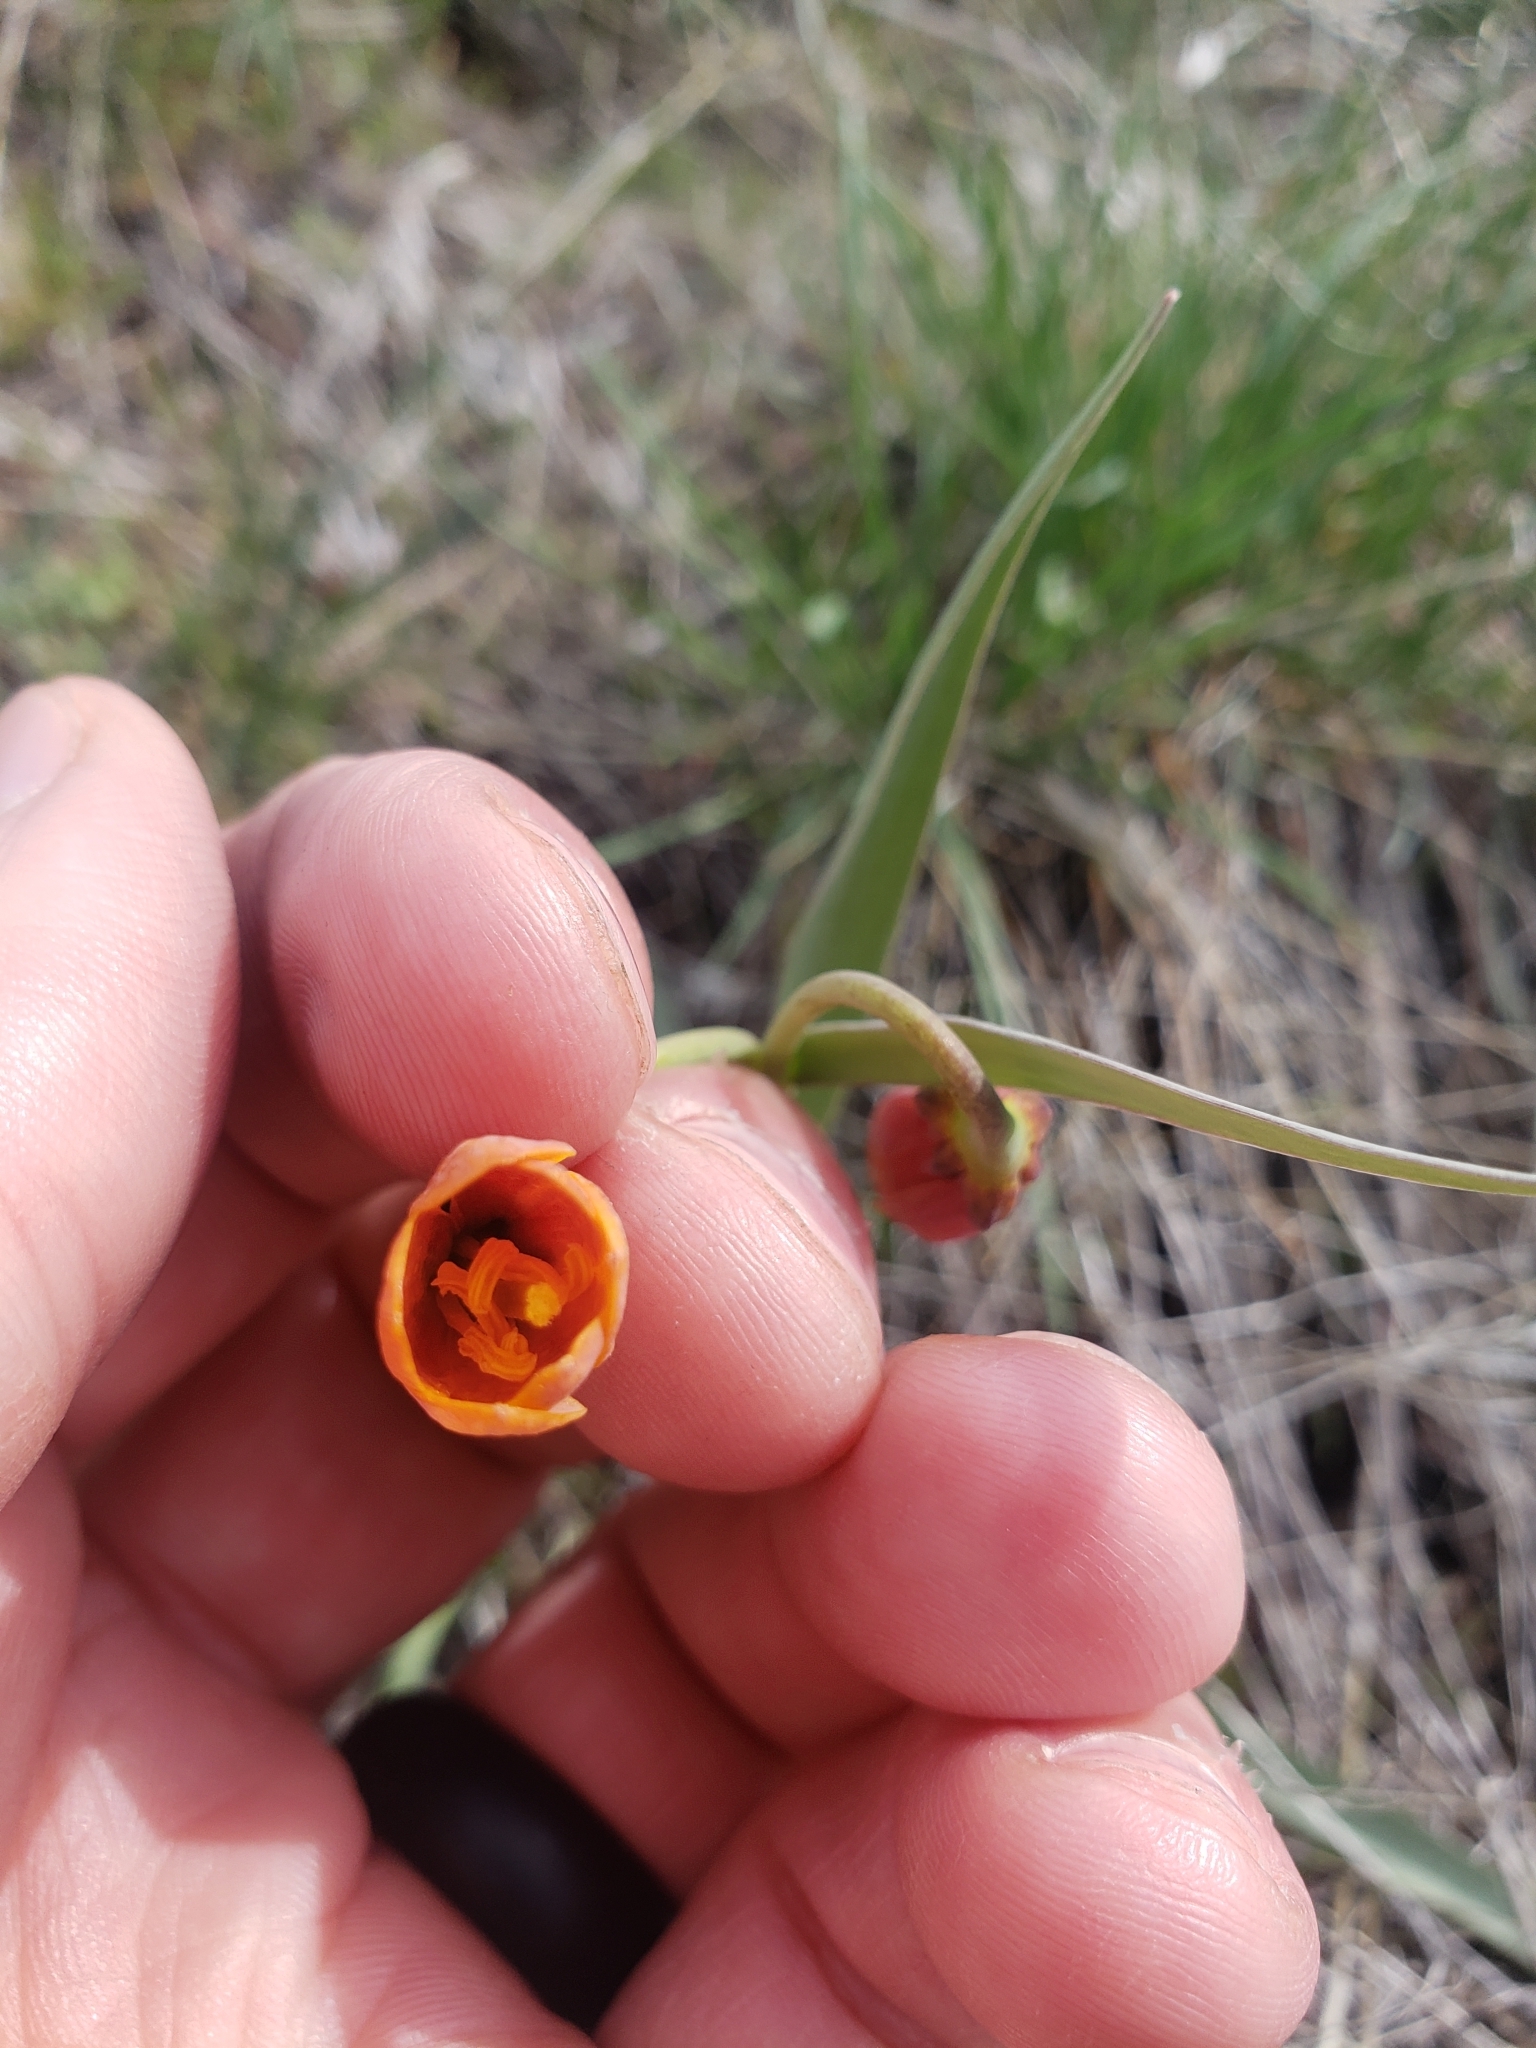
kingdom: Plantae
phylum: Tracheophyta
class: Liliopsida
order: Liliales
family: Liliaceae
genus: Fritillaria
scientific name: Fritillaria pudica
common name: Yellow fritillary
